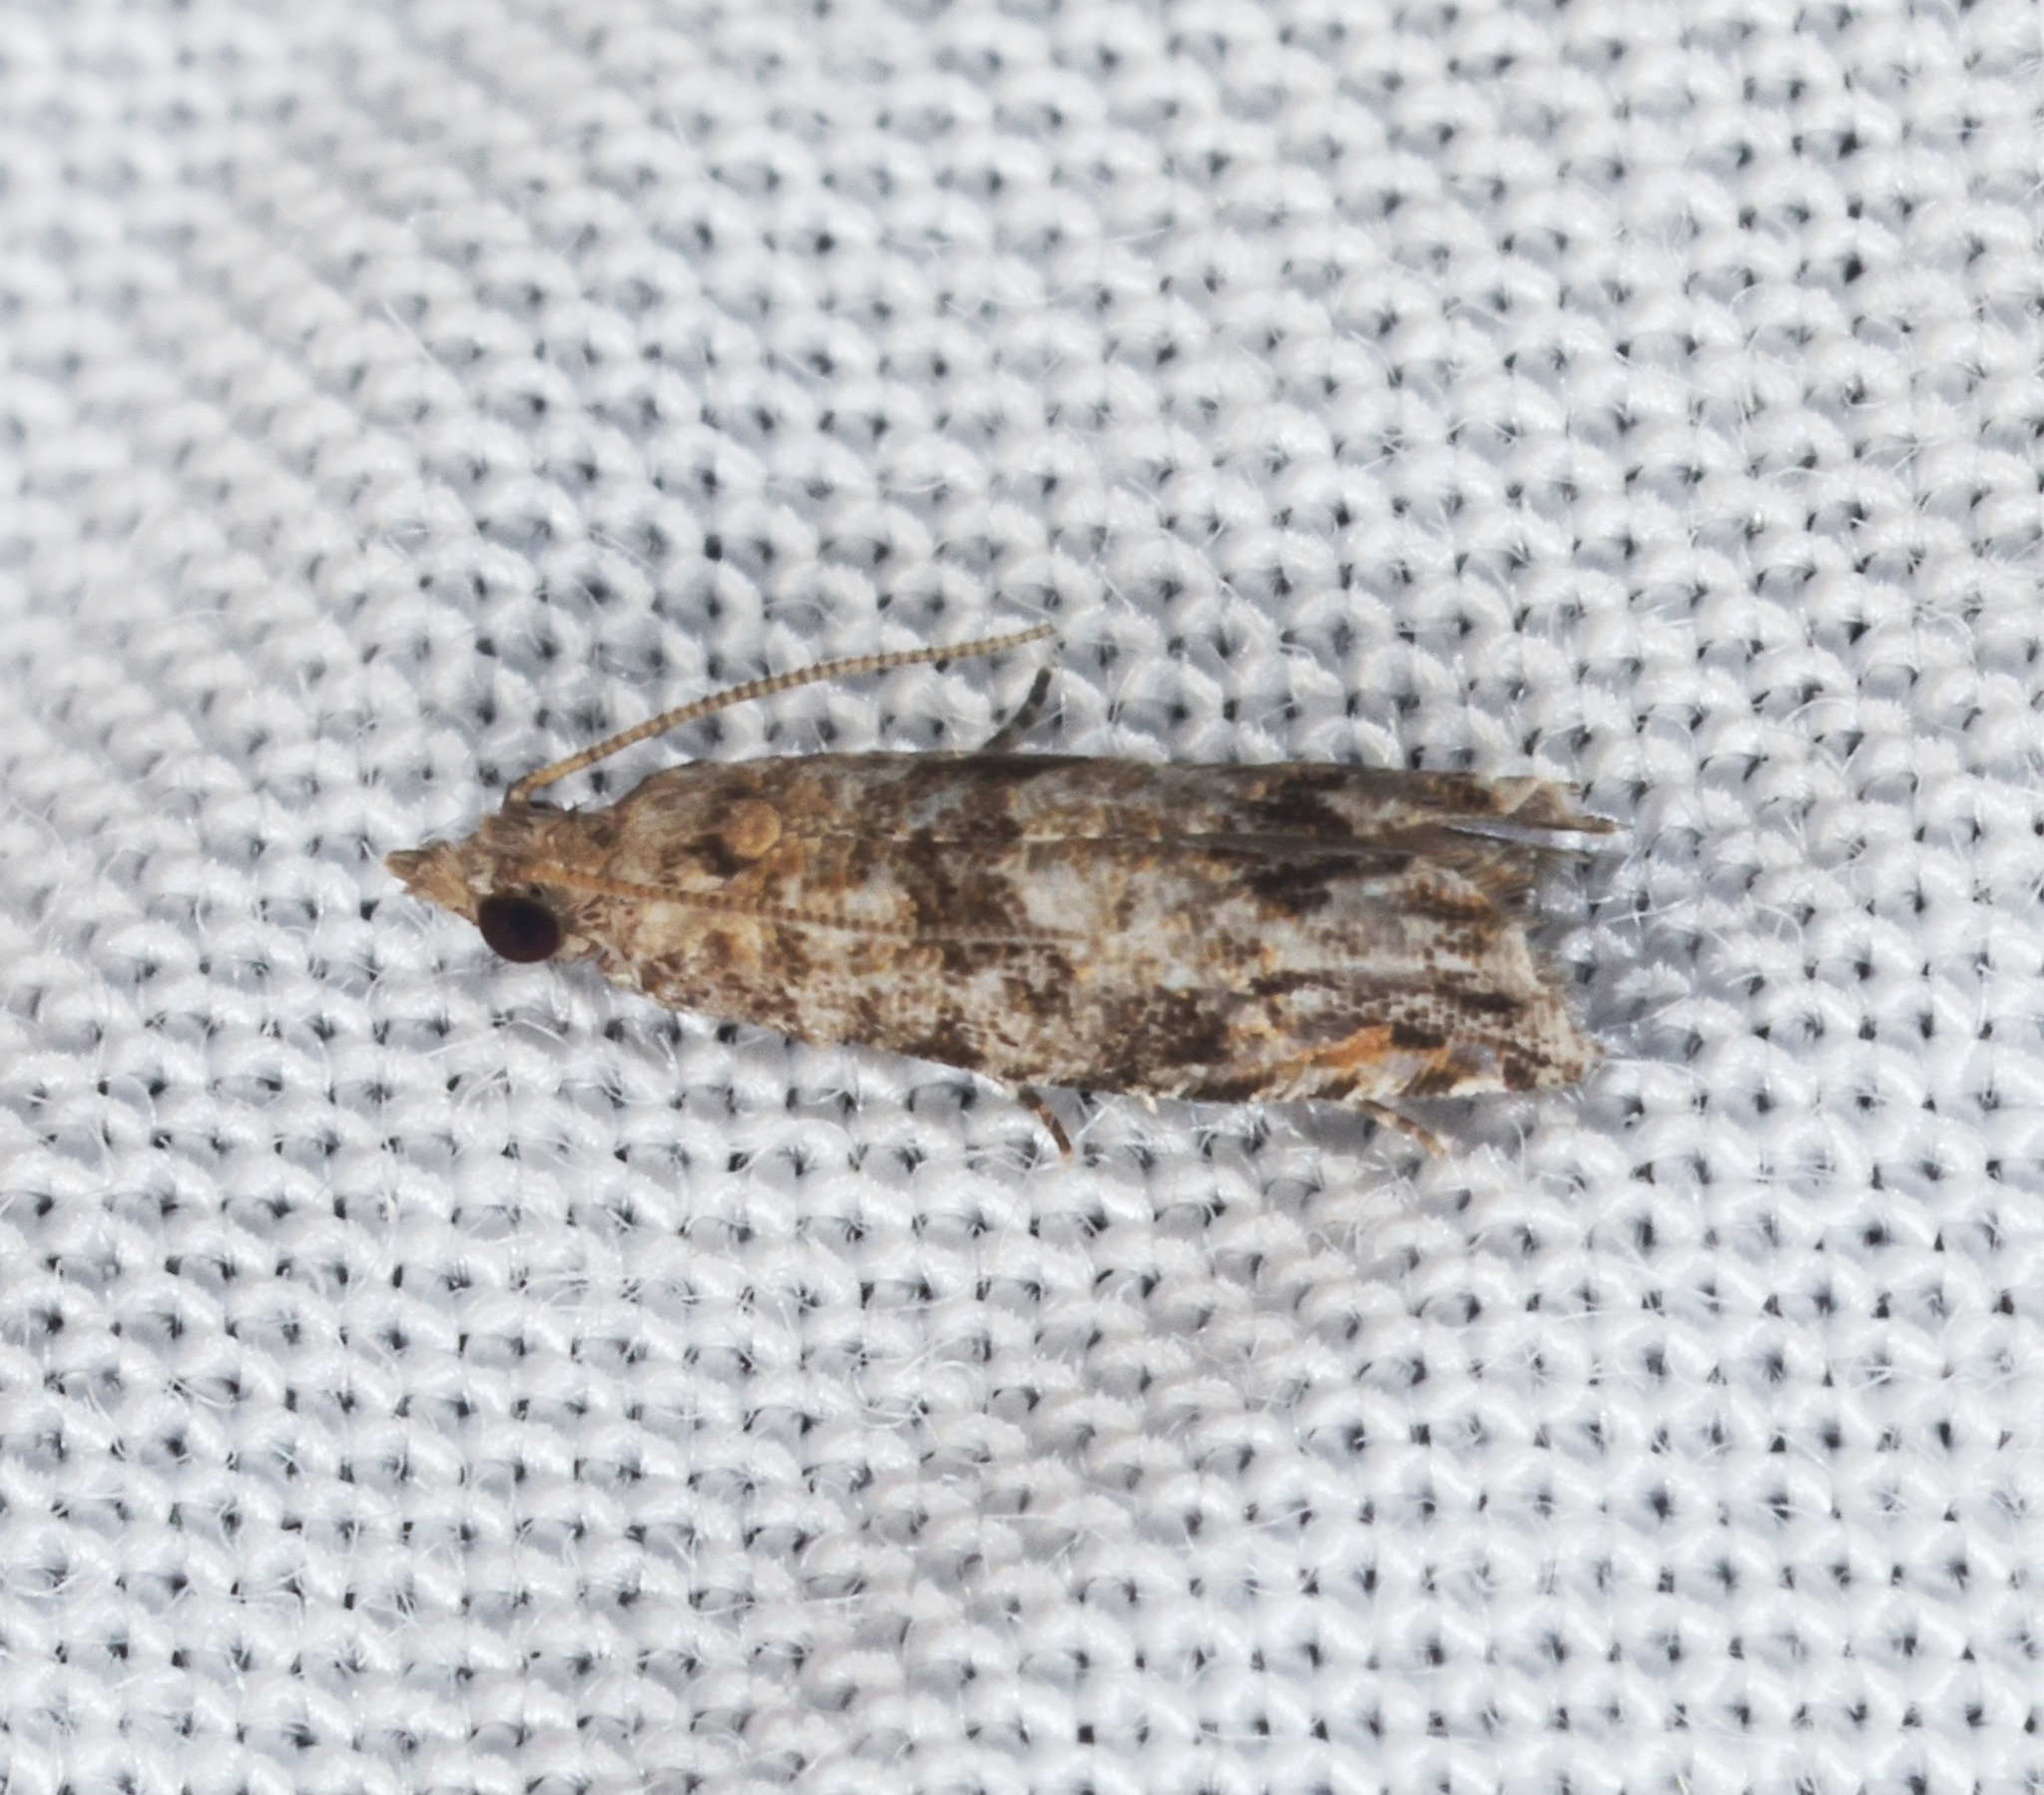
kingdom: Animalia
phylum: Arthropoda
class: Insecta
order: Lepidoptera
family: Tortricidae
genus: Fibuloides
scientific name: Fibuloides
